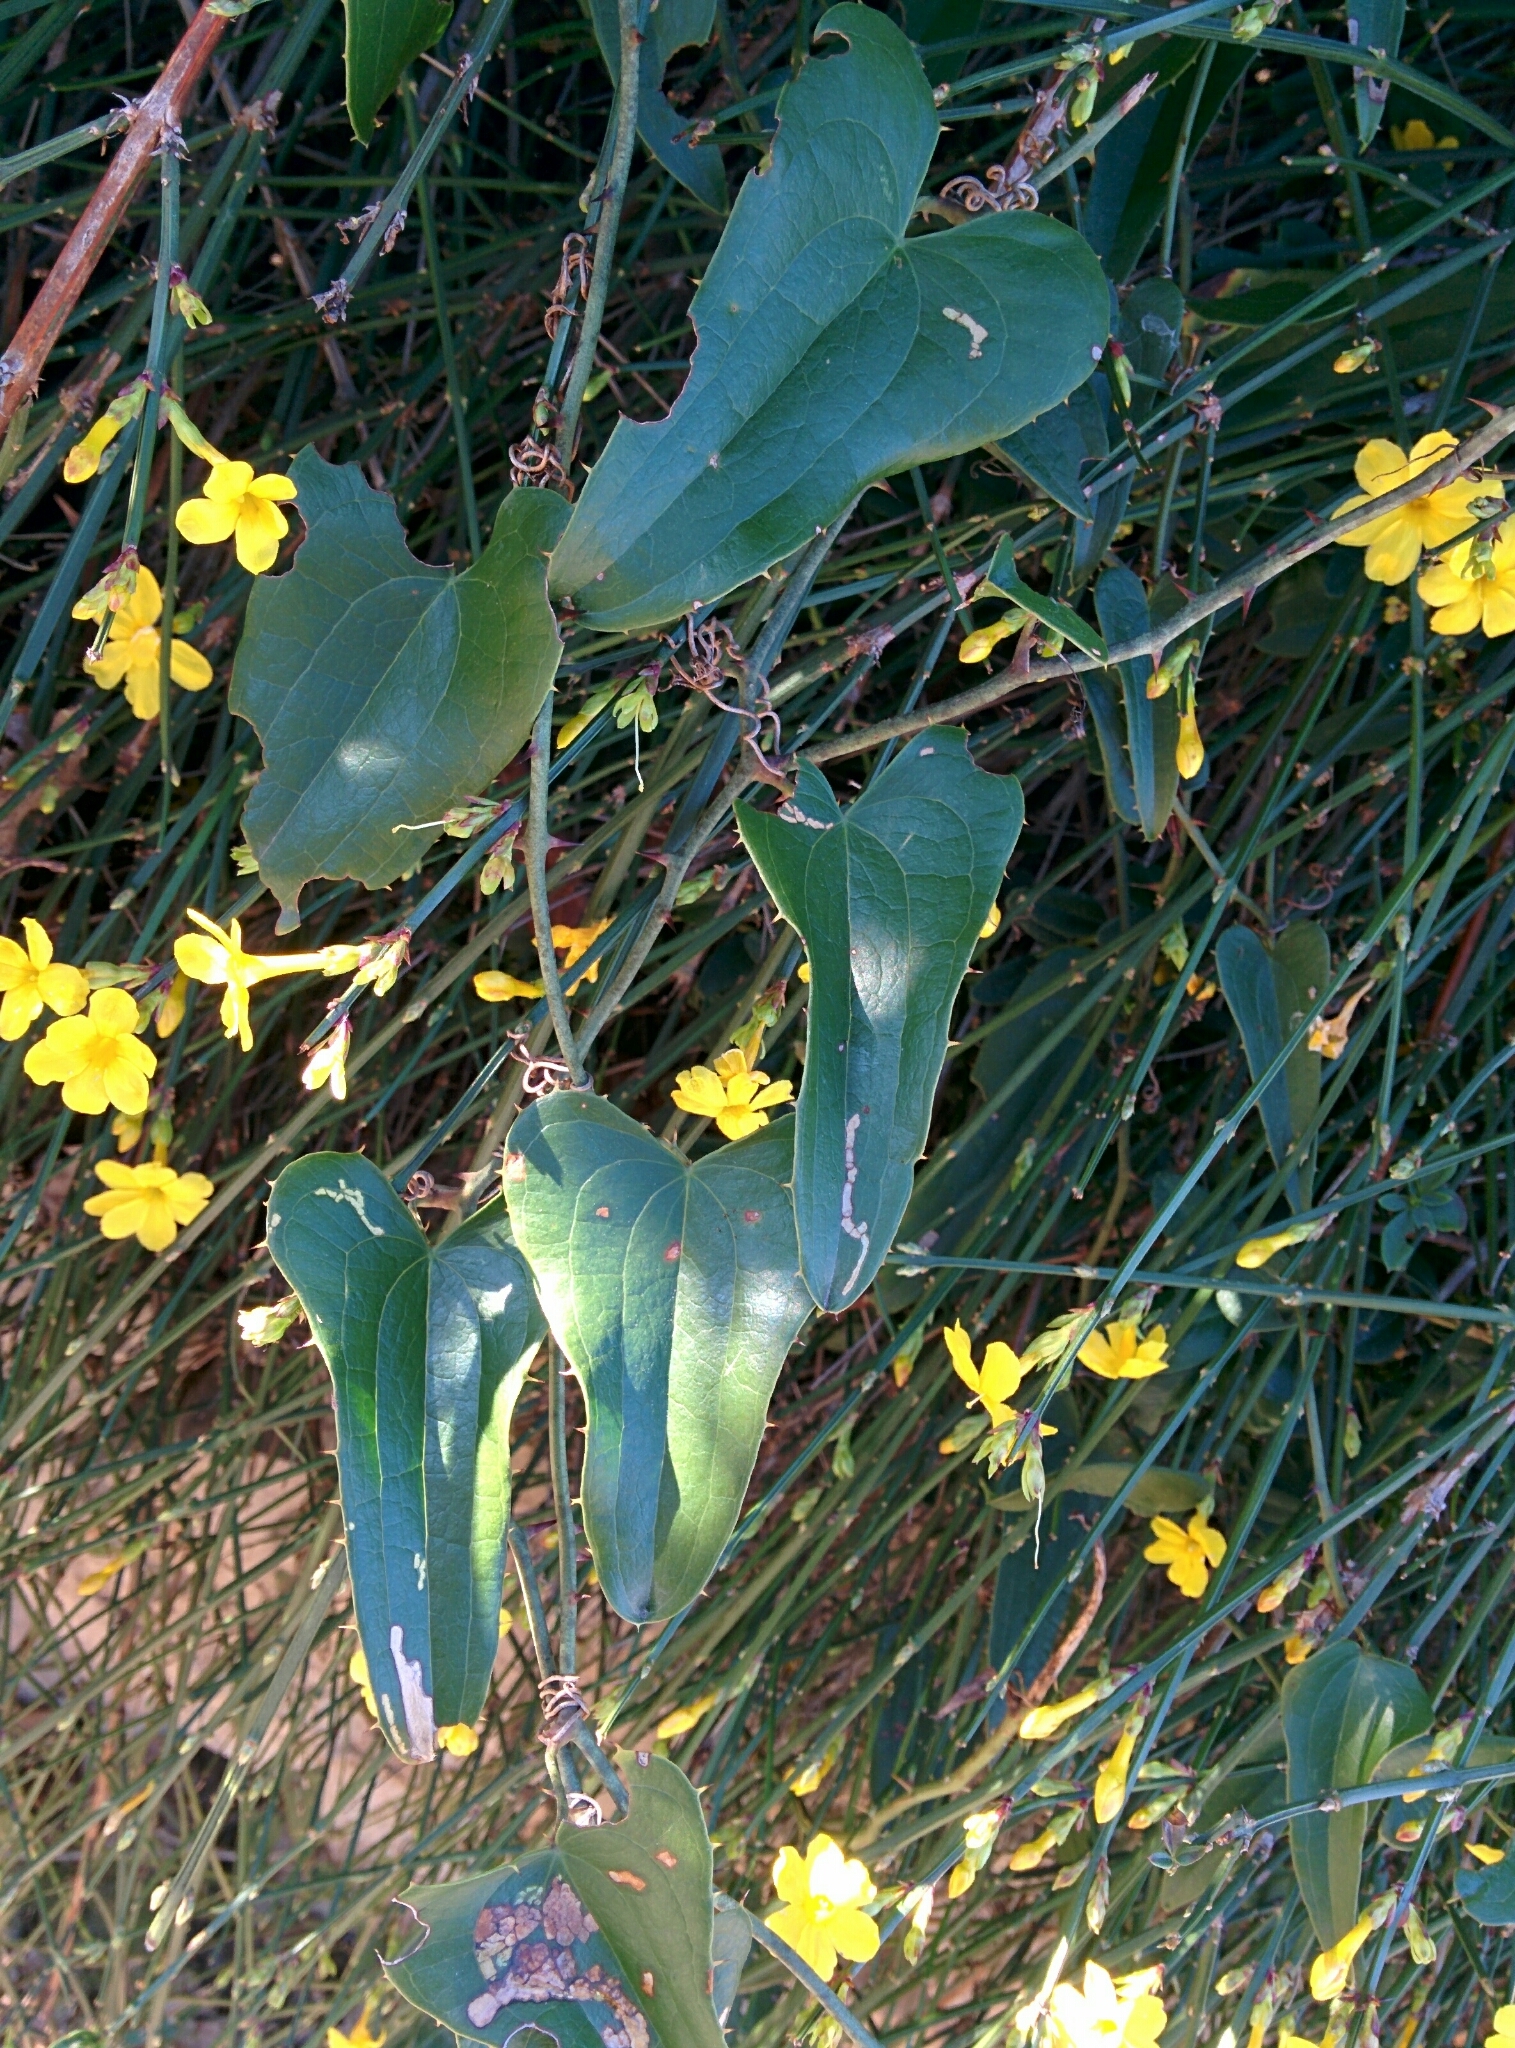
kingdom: Plantae
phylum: Tracheophyta
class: Liliopsida
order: Liliales
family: Smilacaceae
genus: Smilax
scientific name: Smilax aspera
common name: Common smilax
